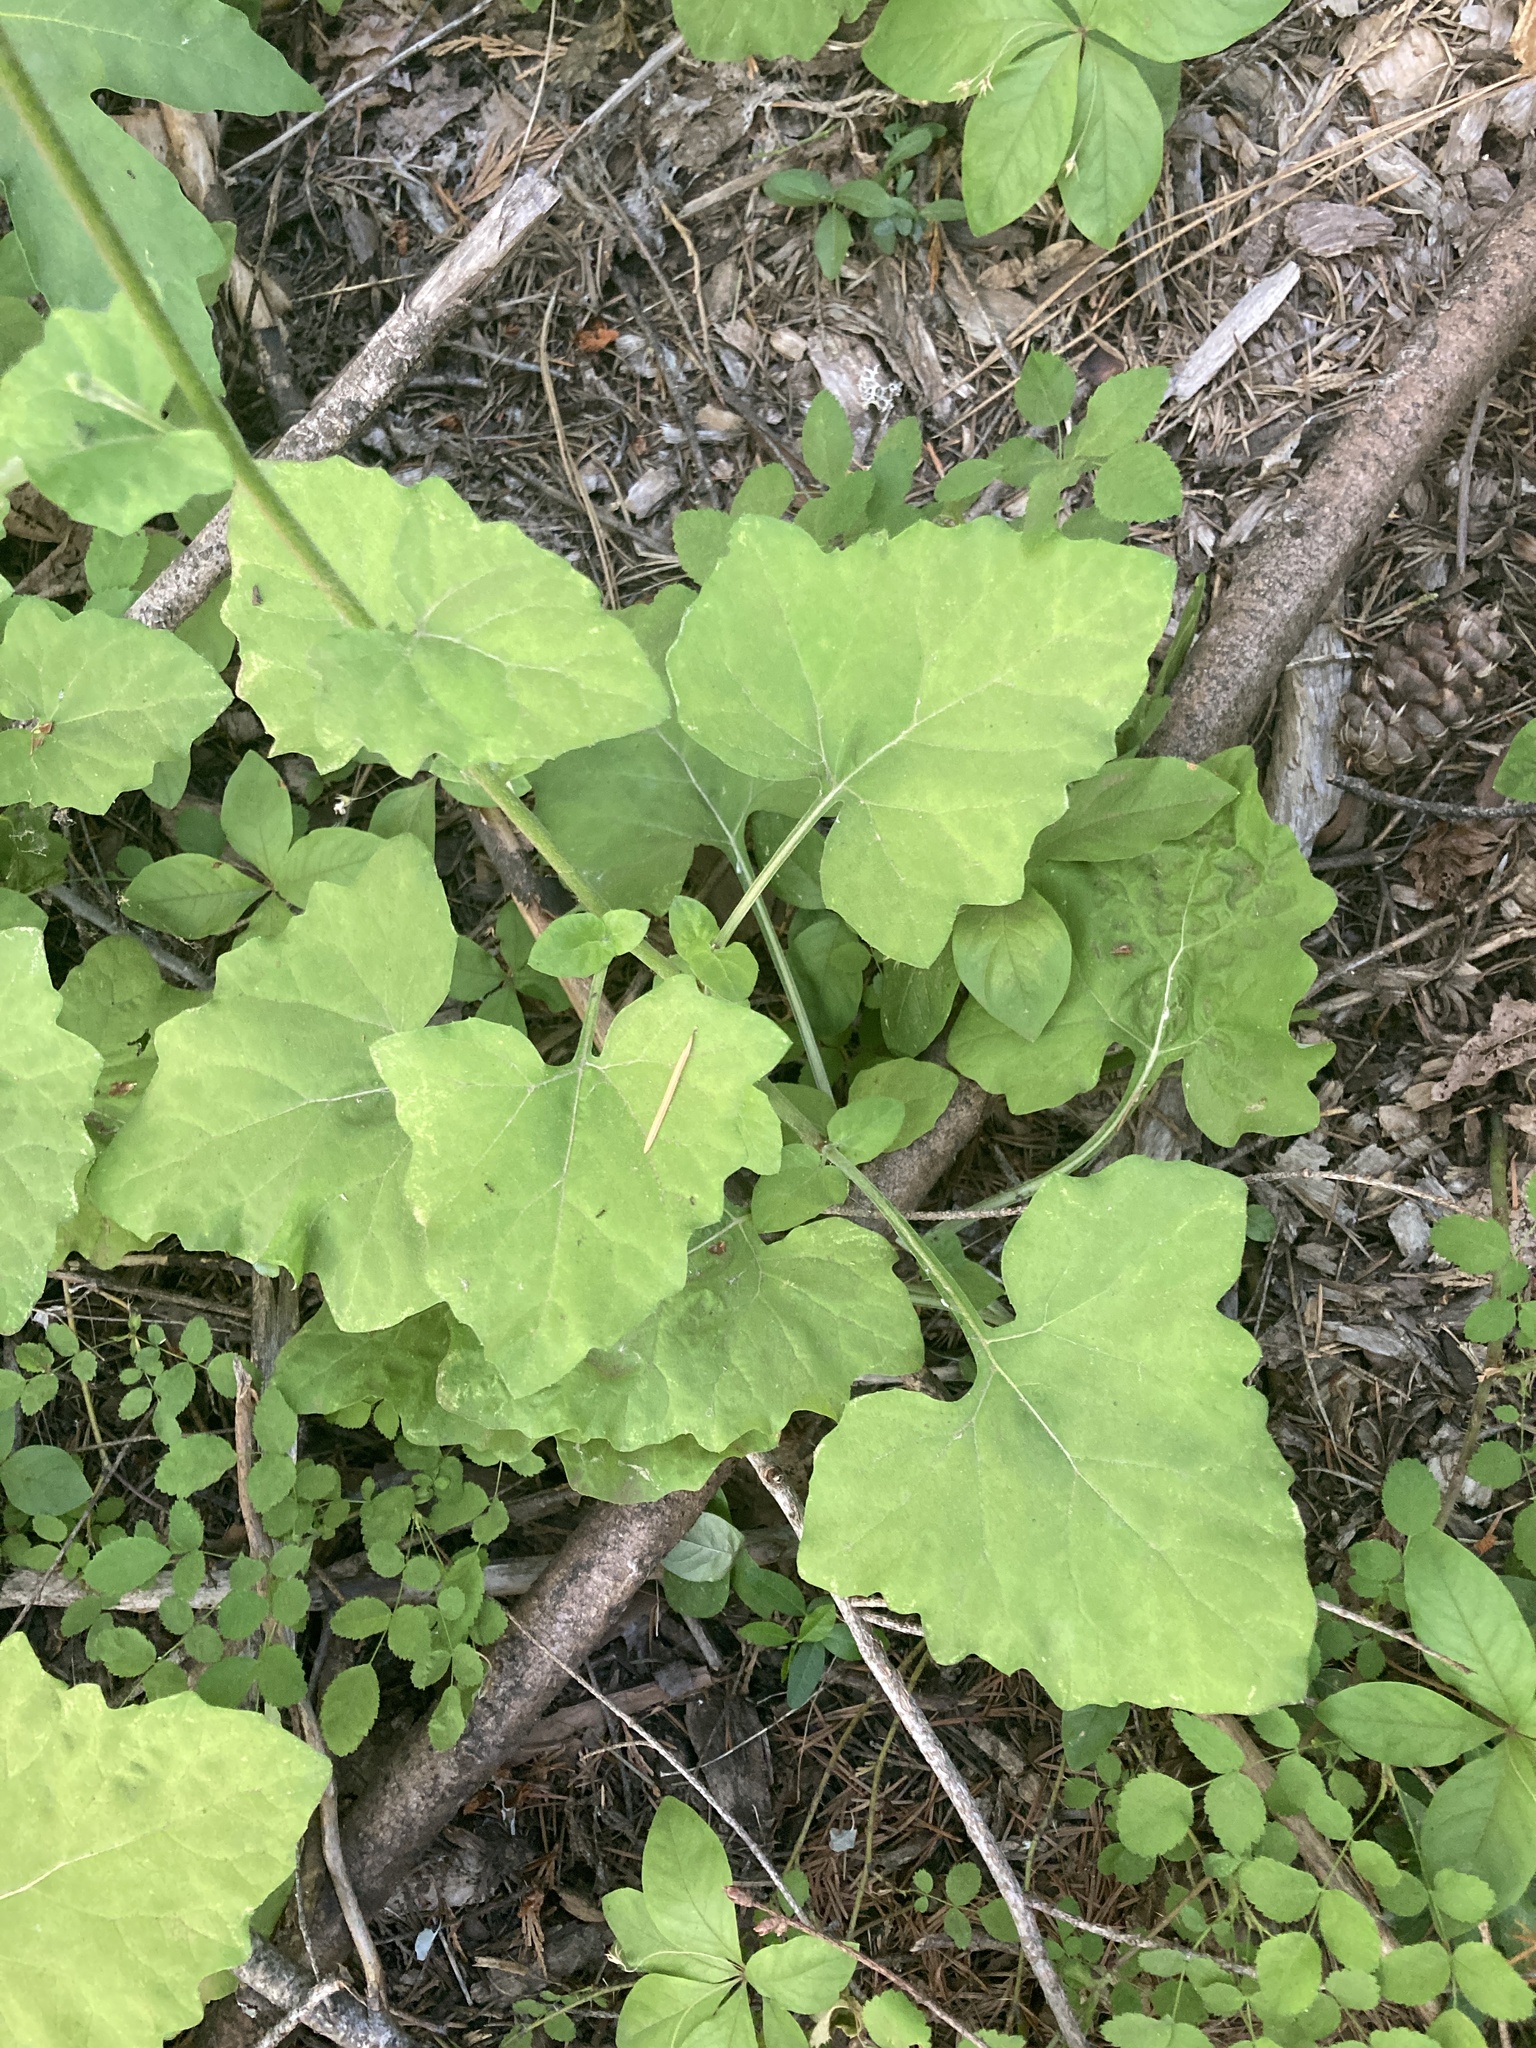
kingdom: Plantae
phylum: Tracheophyta
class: Magnoliopsida
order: Asterales
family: Asteraceae
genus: Adenocaulon
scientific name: Adenocaulon bicolor
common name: Trailplant
